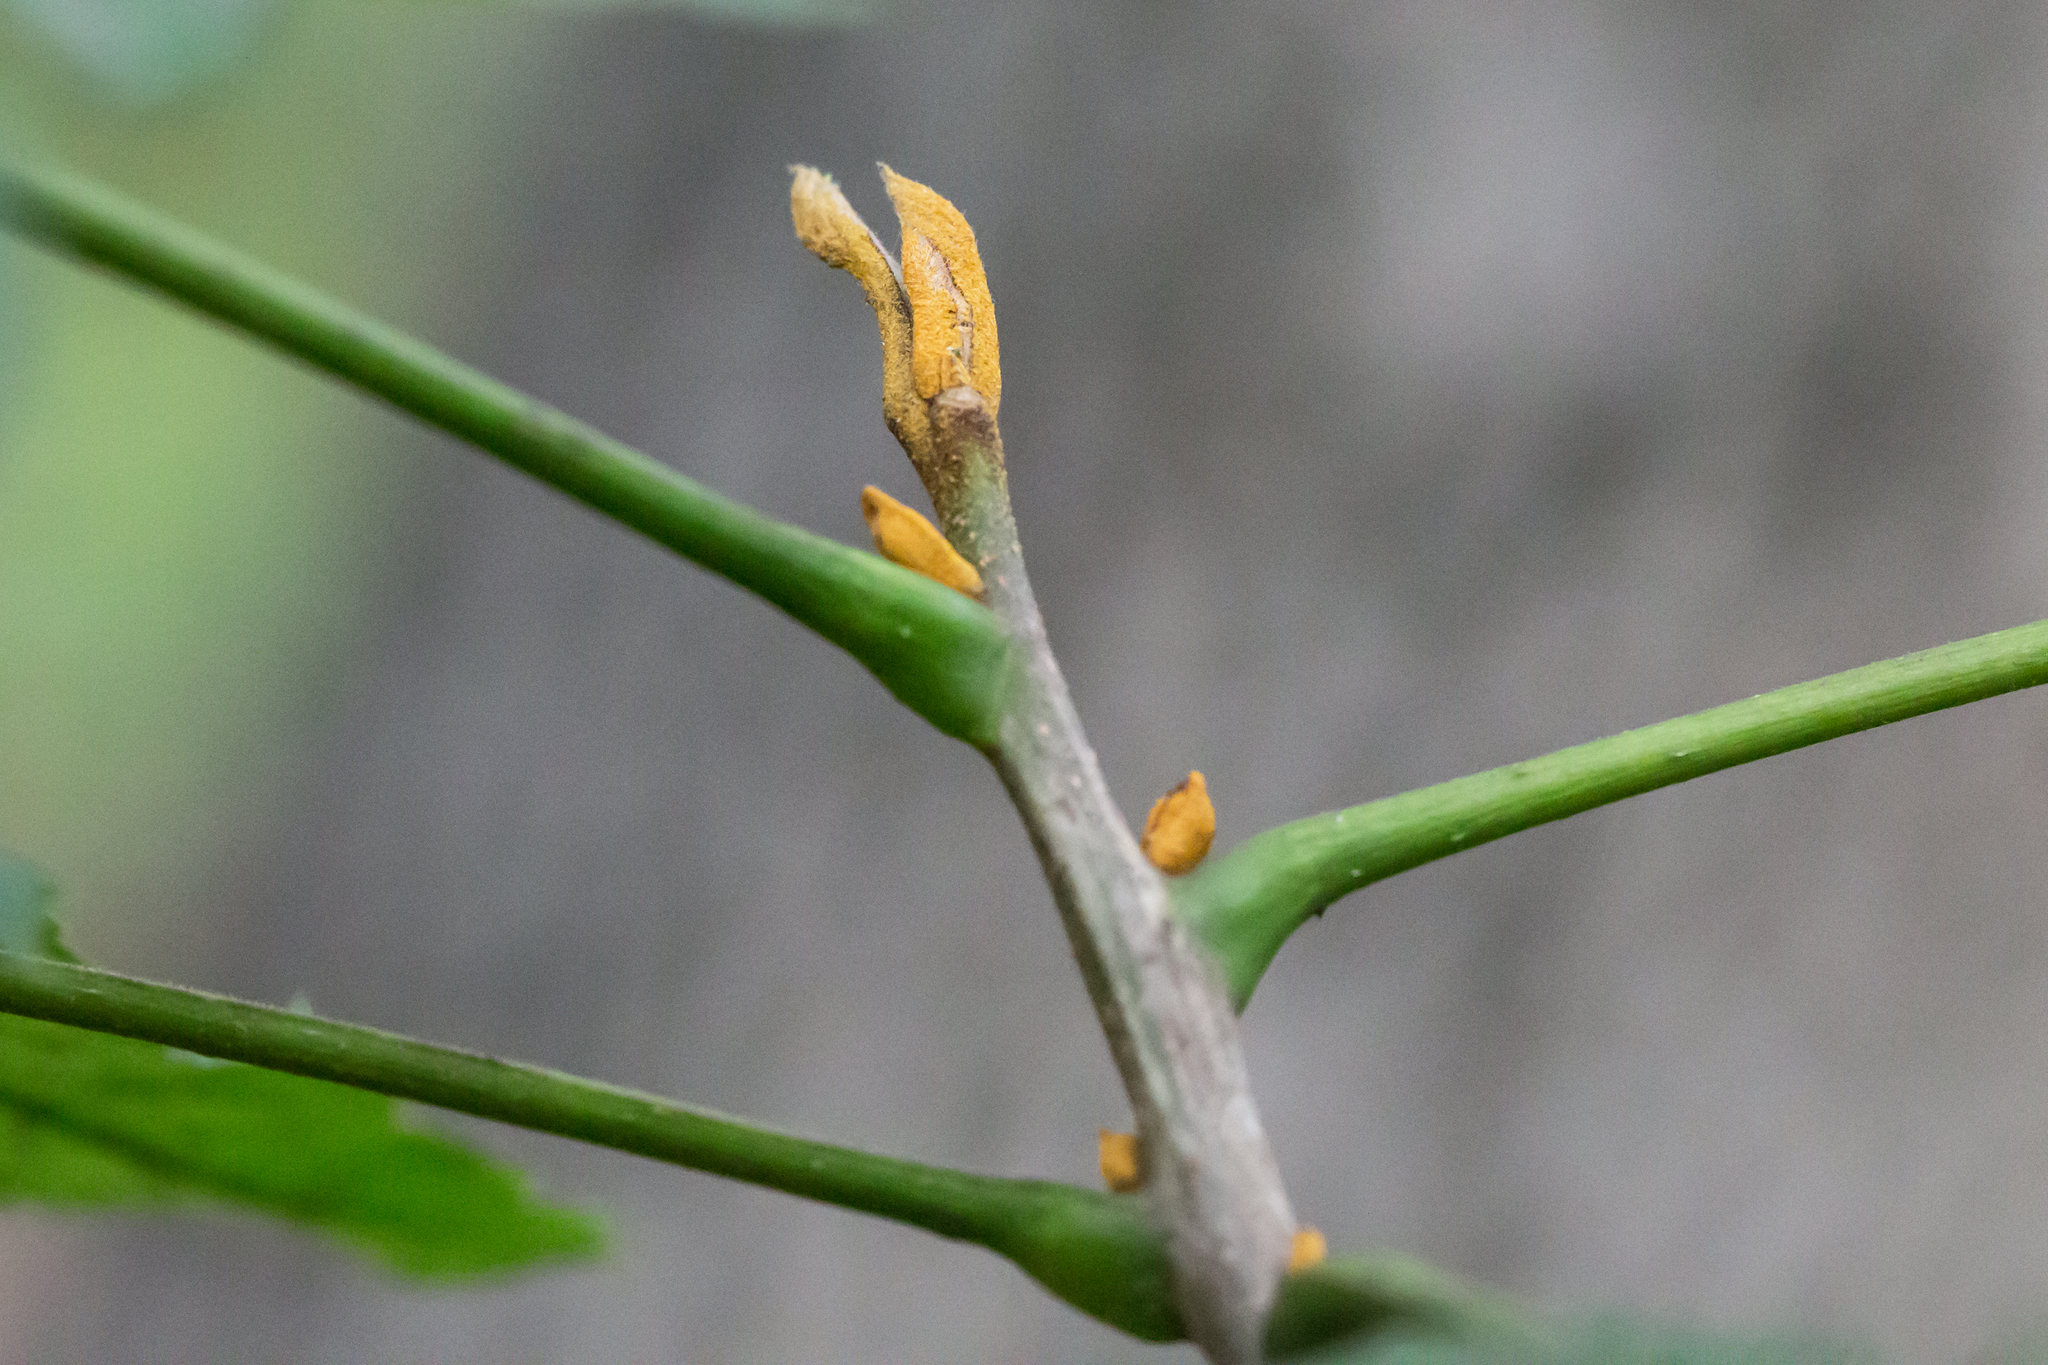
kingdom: Plantae
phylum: Tracheophyta
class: Magnoliopsida
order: Fagales
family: Juglandaceae
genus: Carya
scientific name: Carya cordiformis
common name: Bitternut hickory
